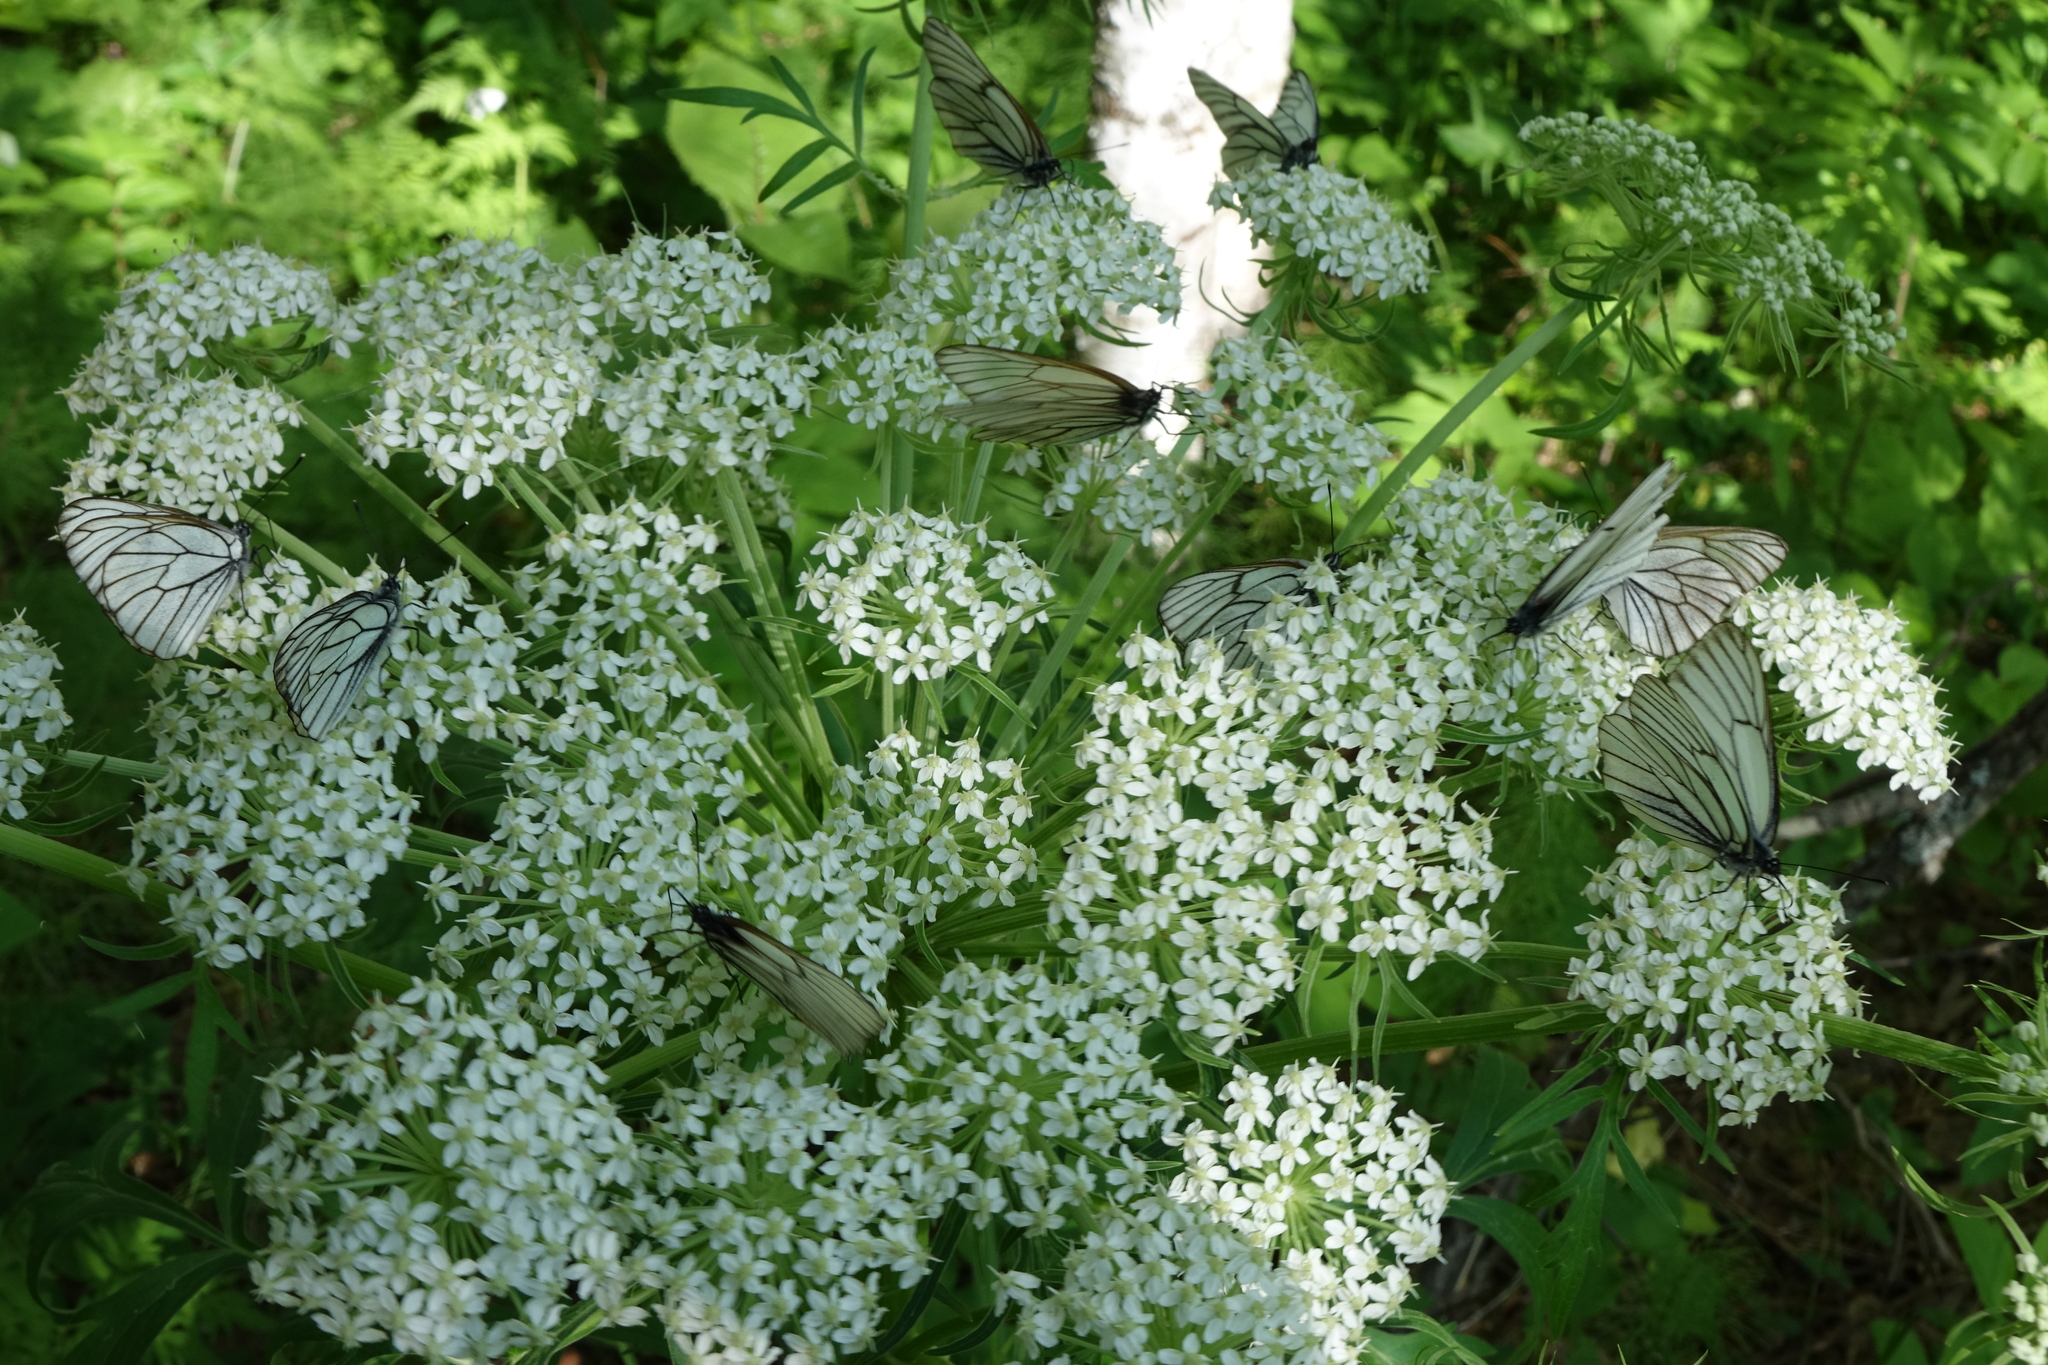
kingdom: Plantae
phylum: Tracheophyta
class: Magnoliopsida
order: Apiales
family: Apiaceae
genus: Pleurospermum
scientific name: Pleurospermum uralense
